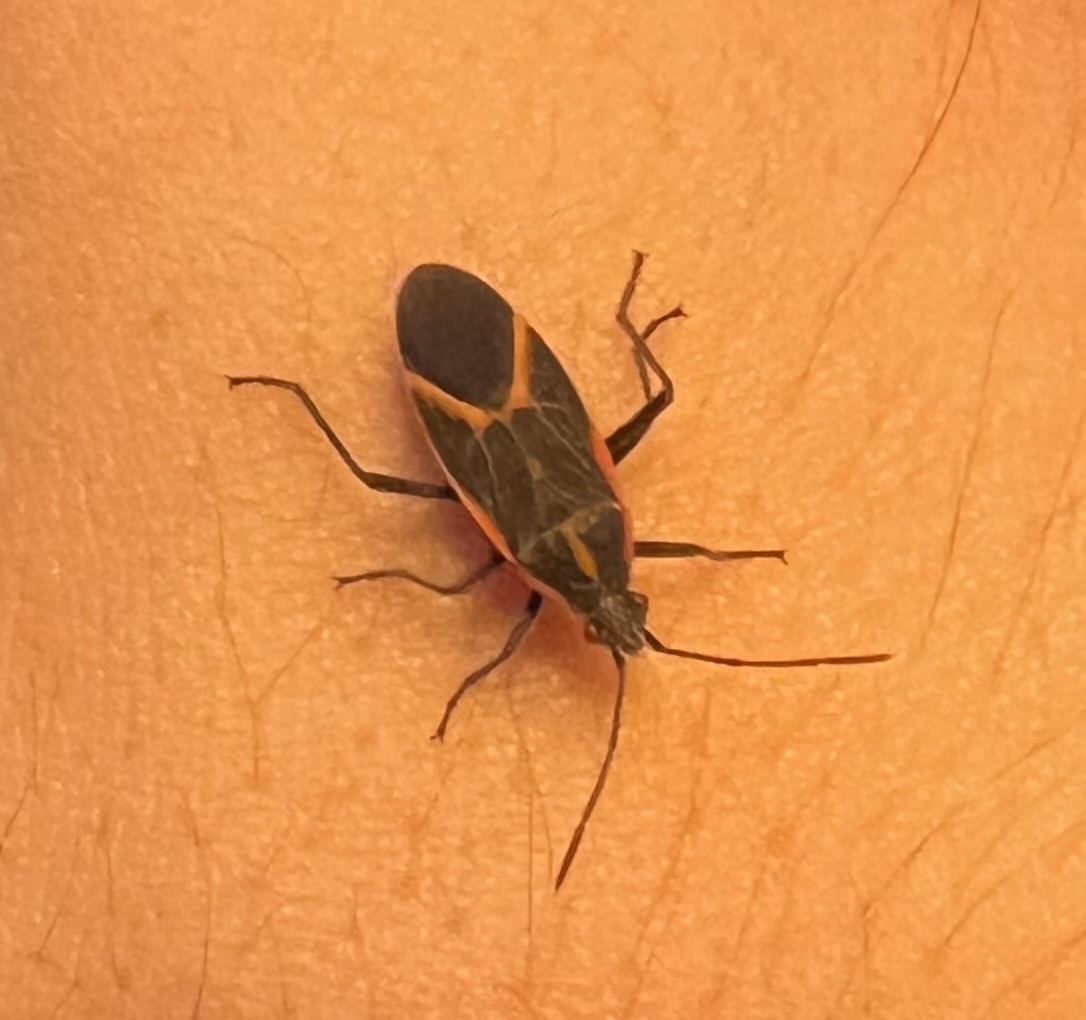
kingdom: Animalia
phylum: Arthropoda
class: Insecta
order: Hemiptera
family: Rhopalidae
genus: Boisea
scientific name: Boisea trivittata
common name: Boxelder bug
